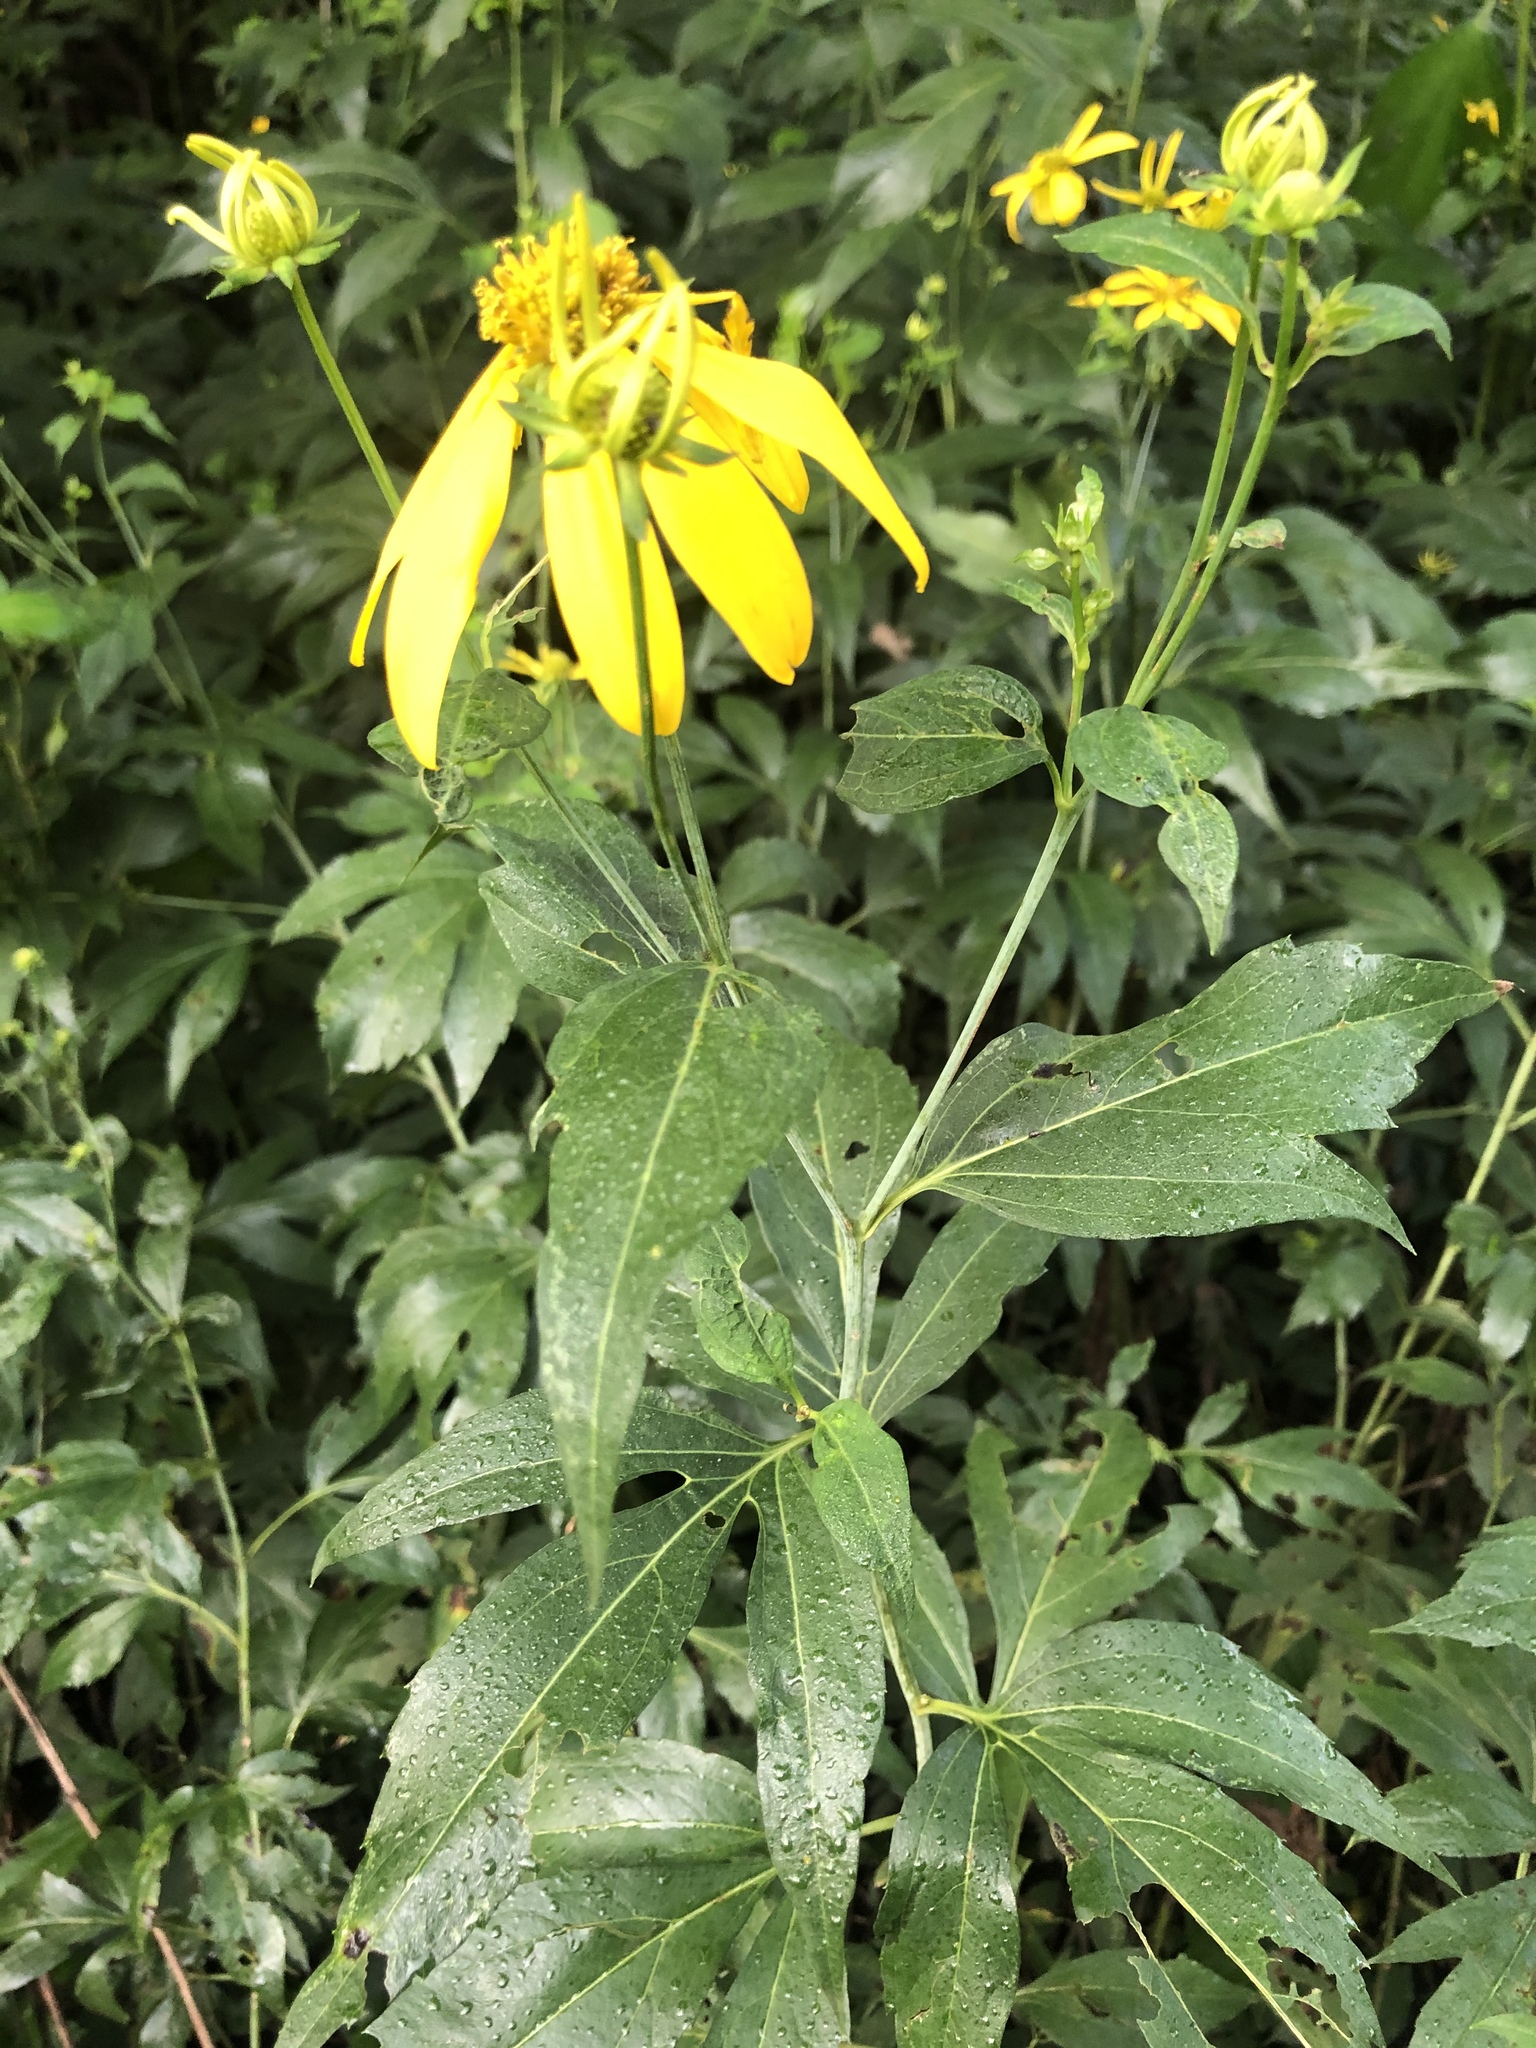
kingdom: Plantae
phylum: Tracheophyta
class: Magnoliopsida
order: Asterales
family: Asteraceae
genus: Rudbeckia
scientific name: Rudbeckia laciniata
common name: Coneflower
